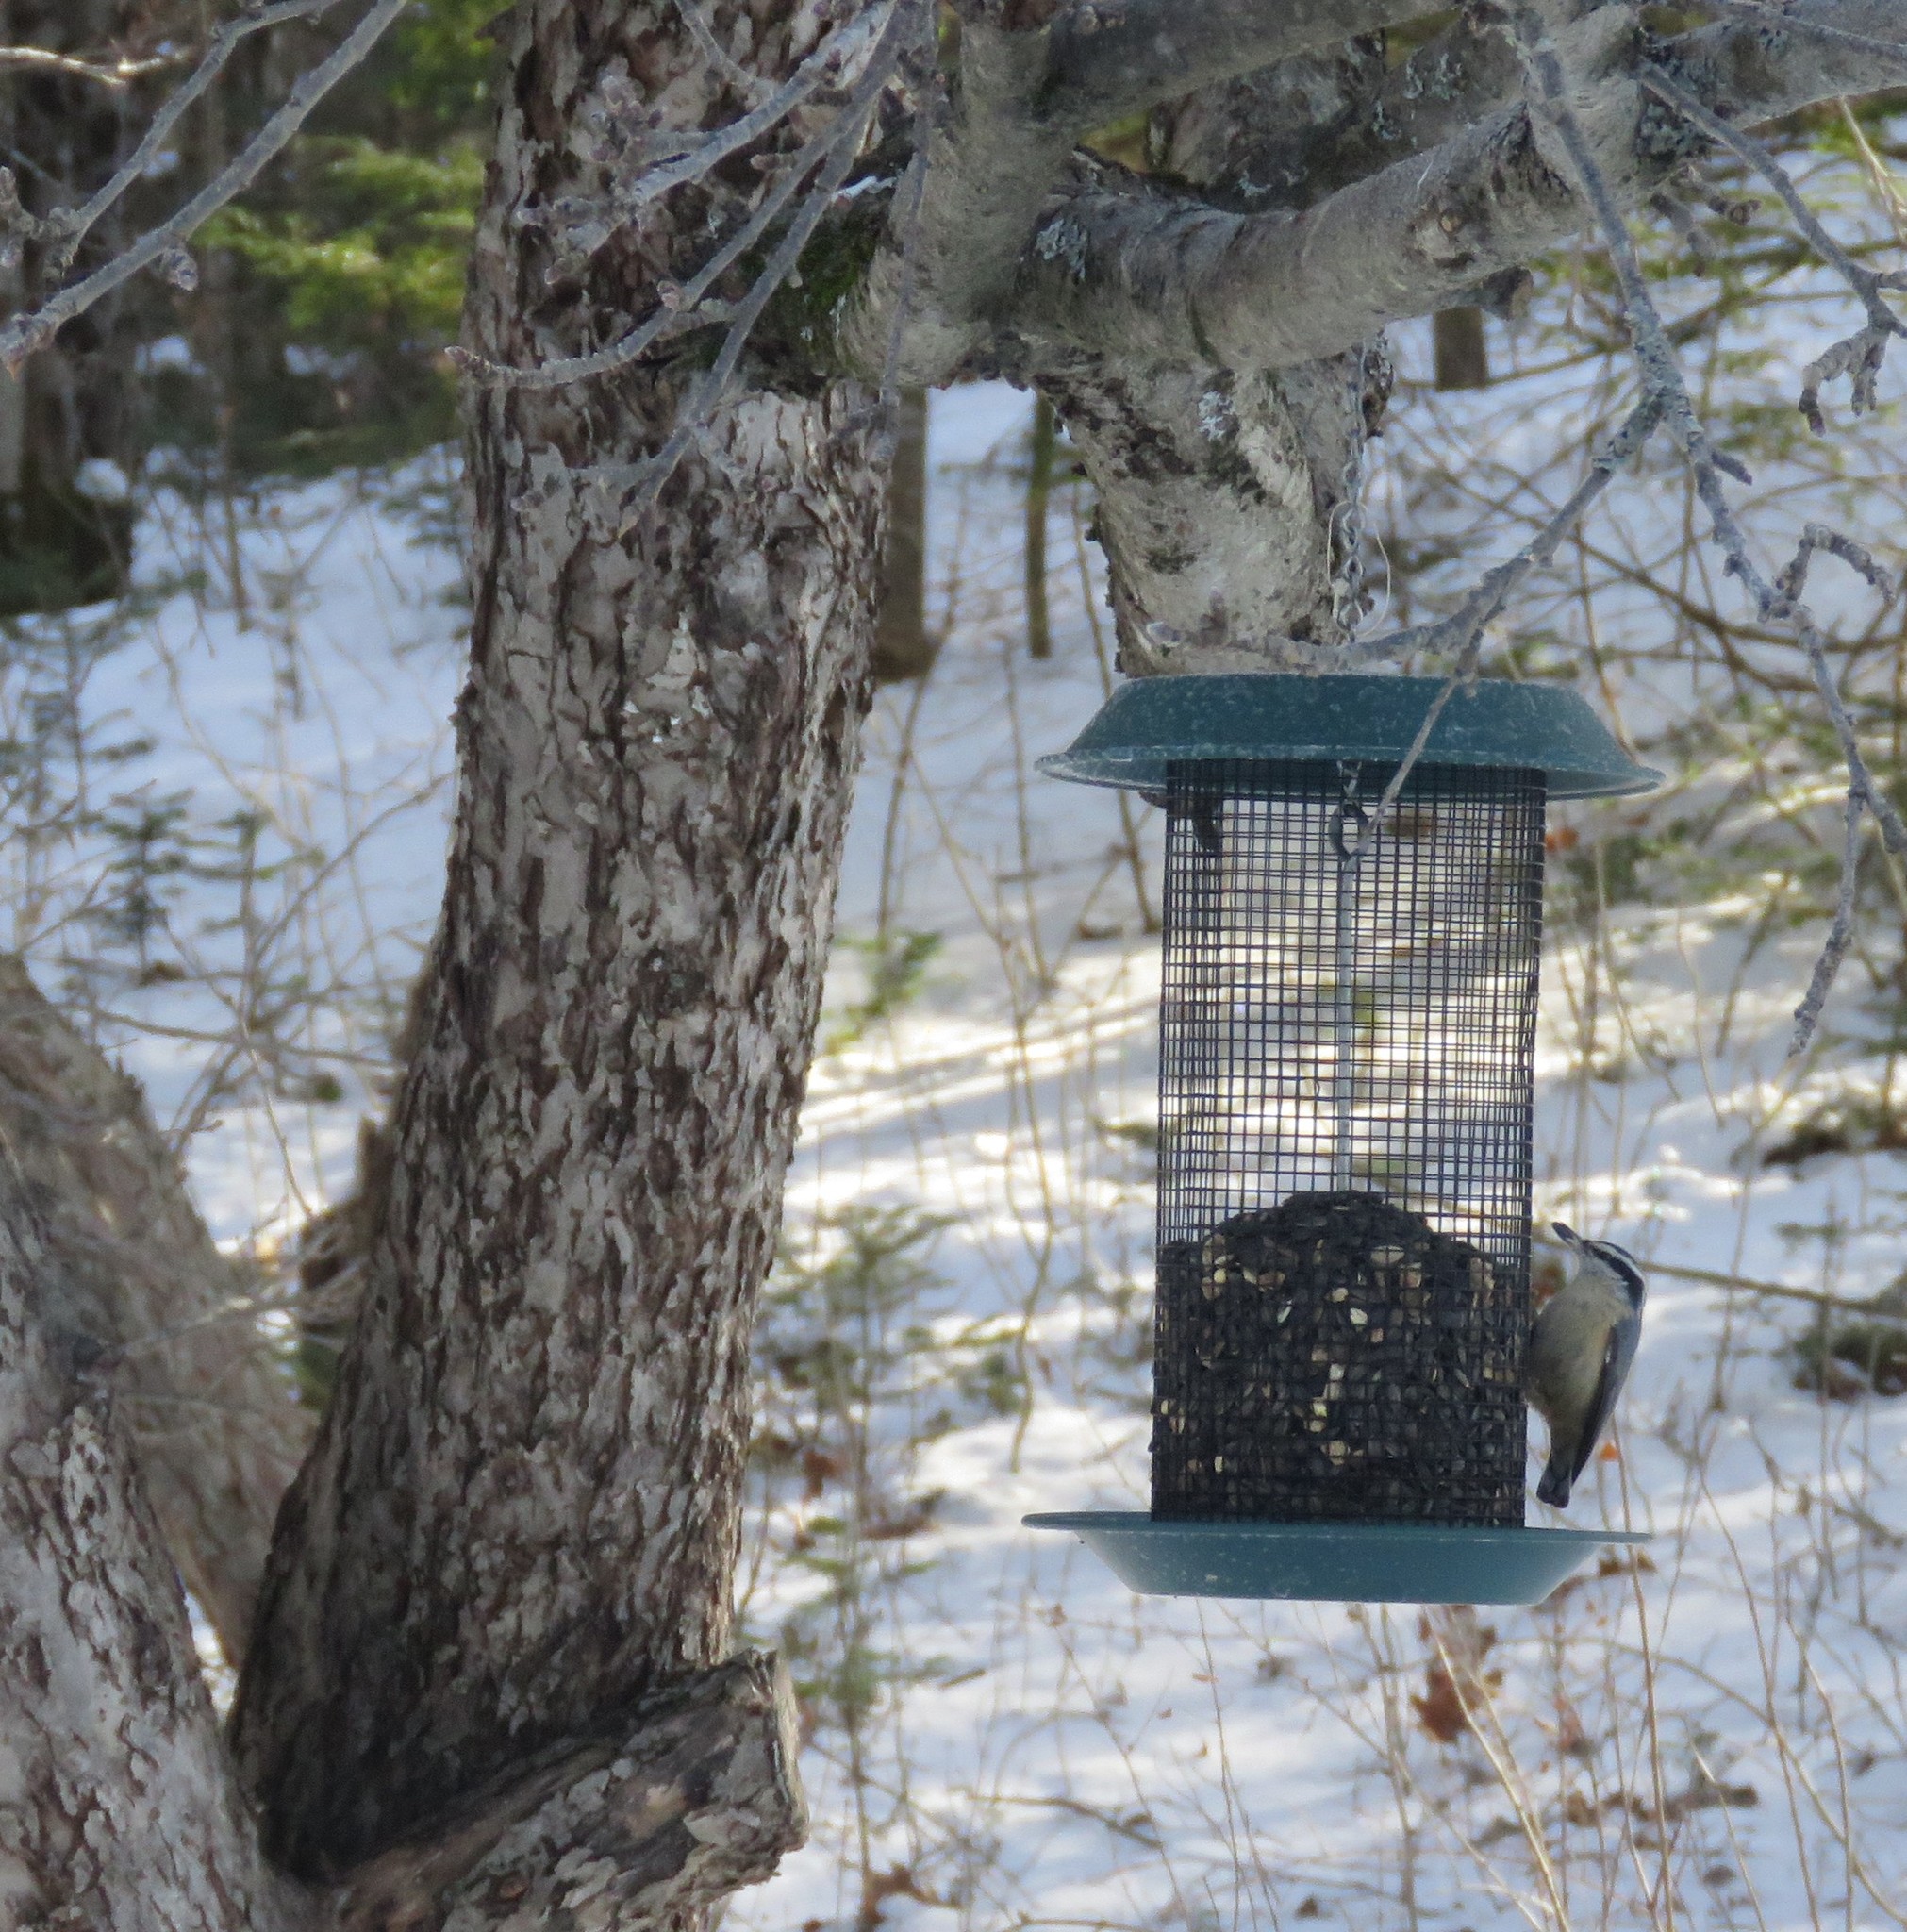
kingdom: Animalia
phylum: Chordata
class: Aves
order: Passeriformes
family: Sittidae
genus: Sitta
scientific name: Sitta canadensis
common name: Red-breasted nuthatch
